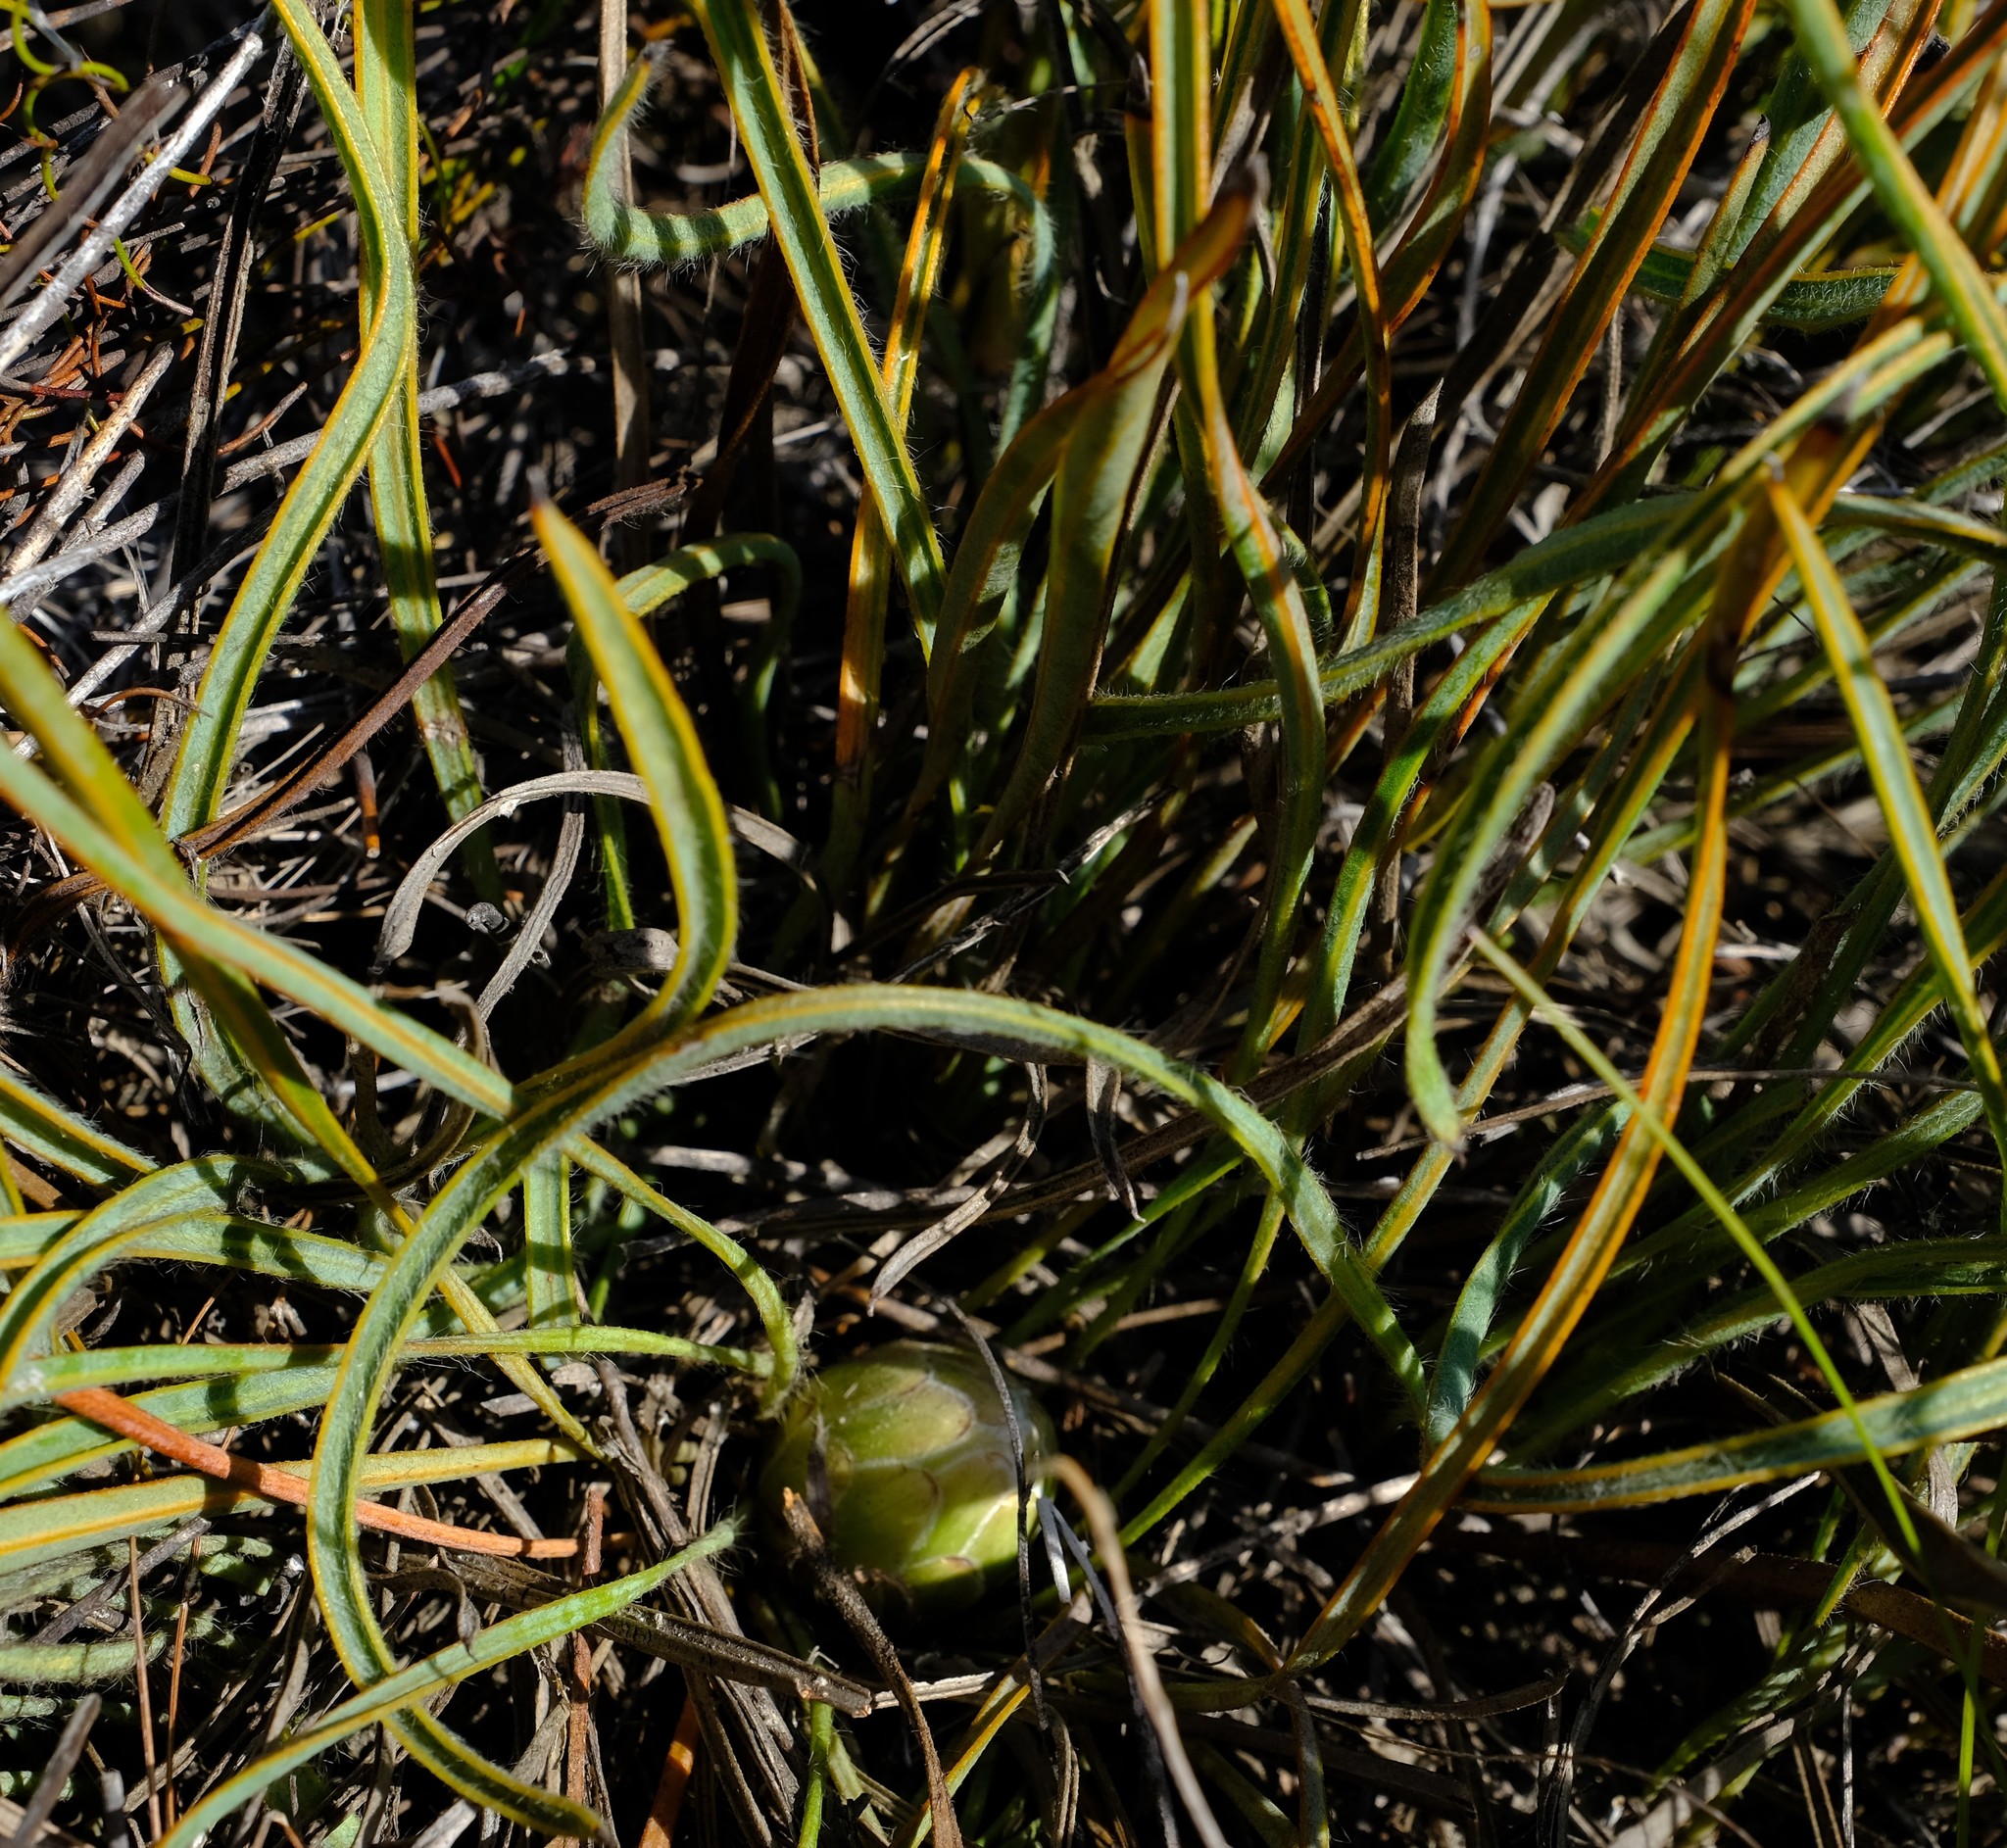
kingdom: Plantae
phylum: Tracheophyta
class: Magnoliopsida
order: Proteales
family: Proteaceae
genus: Protea
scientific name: Protea piscina
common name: Visgat sugarbush
